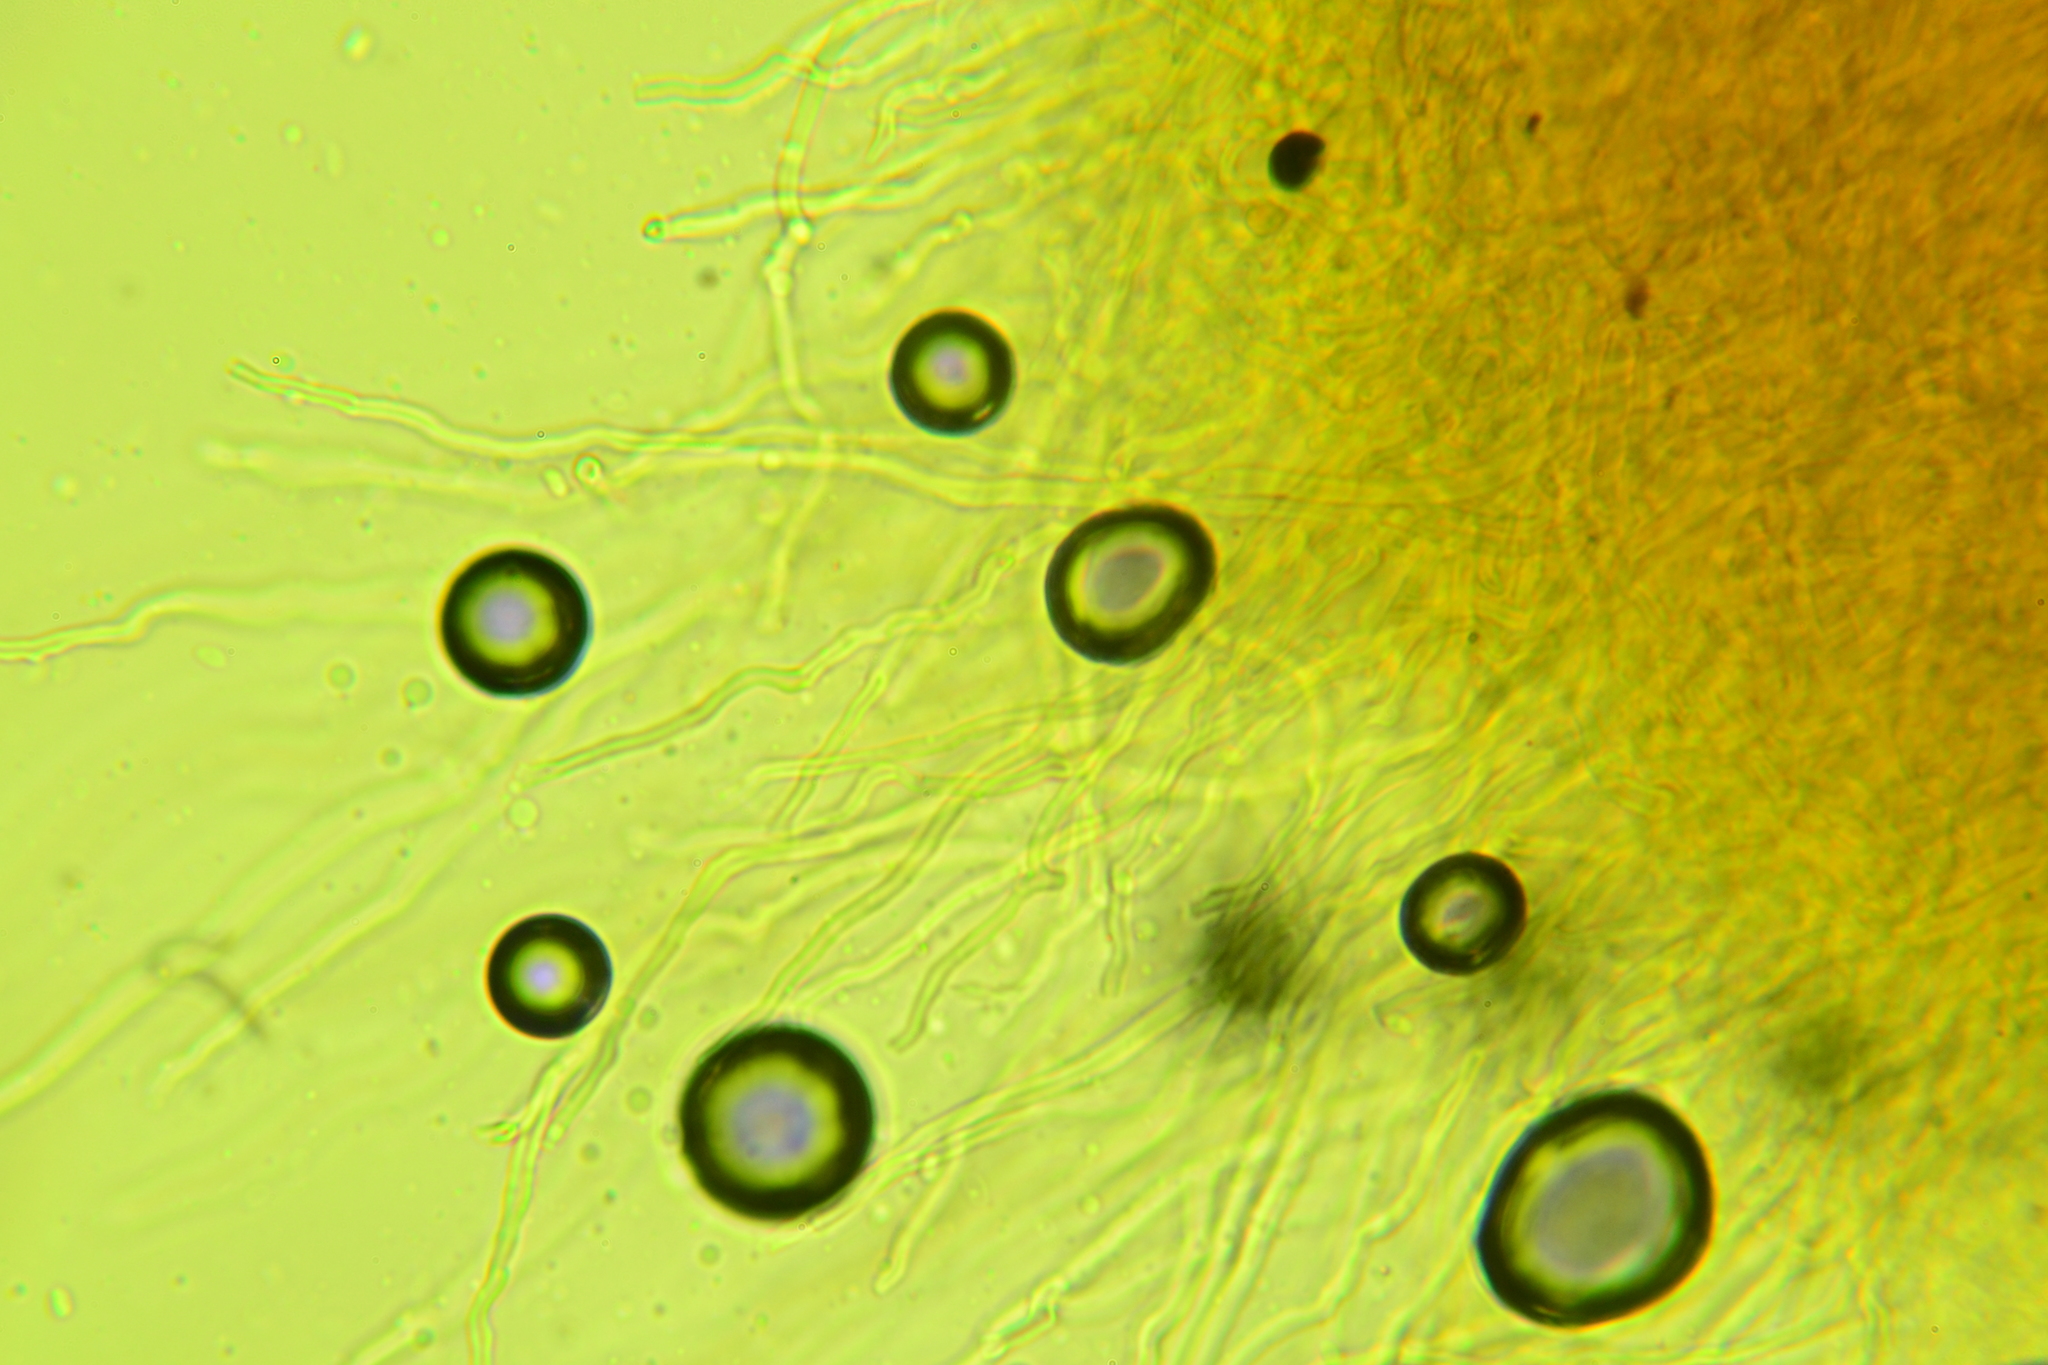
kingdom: Fungi
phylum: Basidiomycota
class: Agaricomycetes
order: Polyporales
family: Steccherinaceae
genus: Metuloidea
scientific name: Metuloidea reniformis
